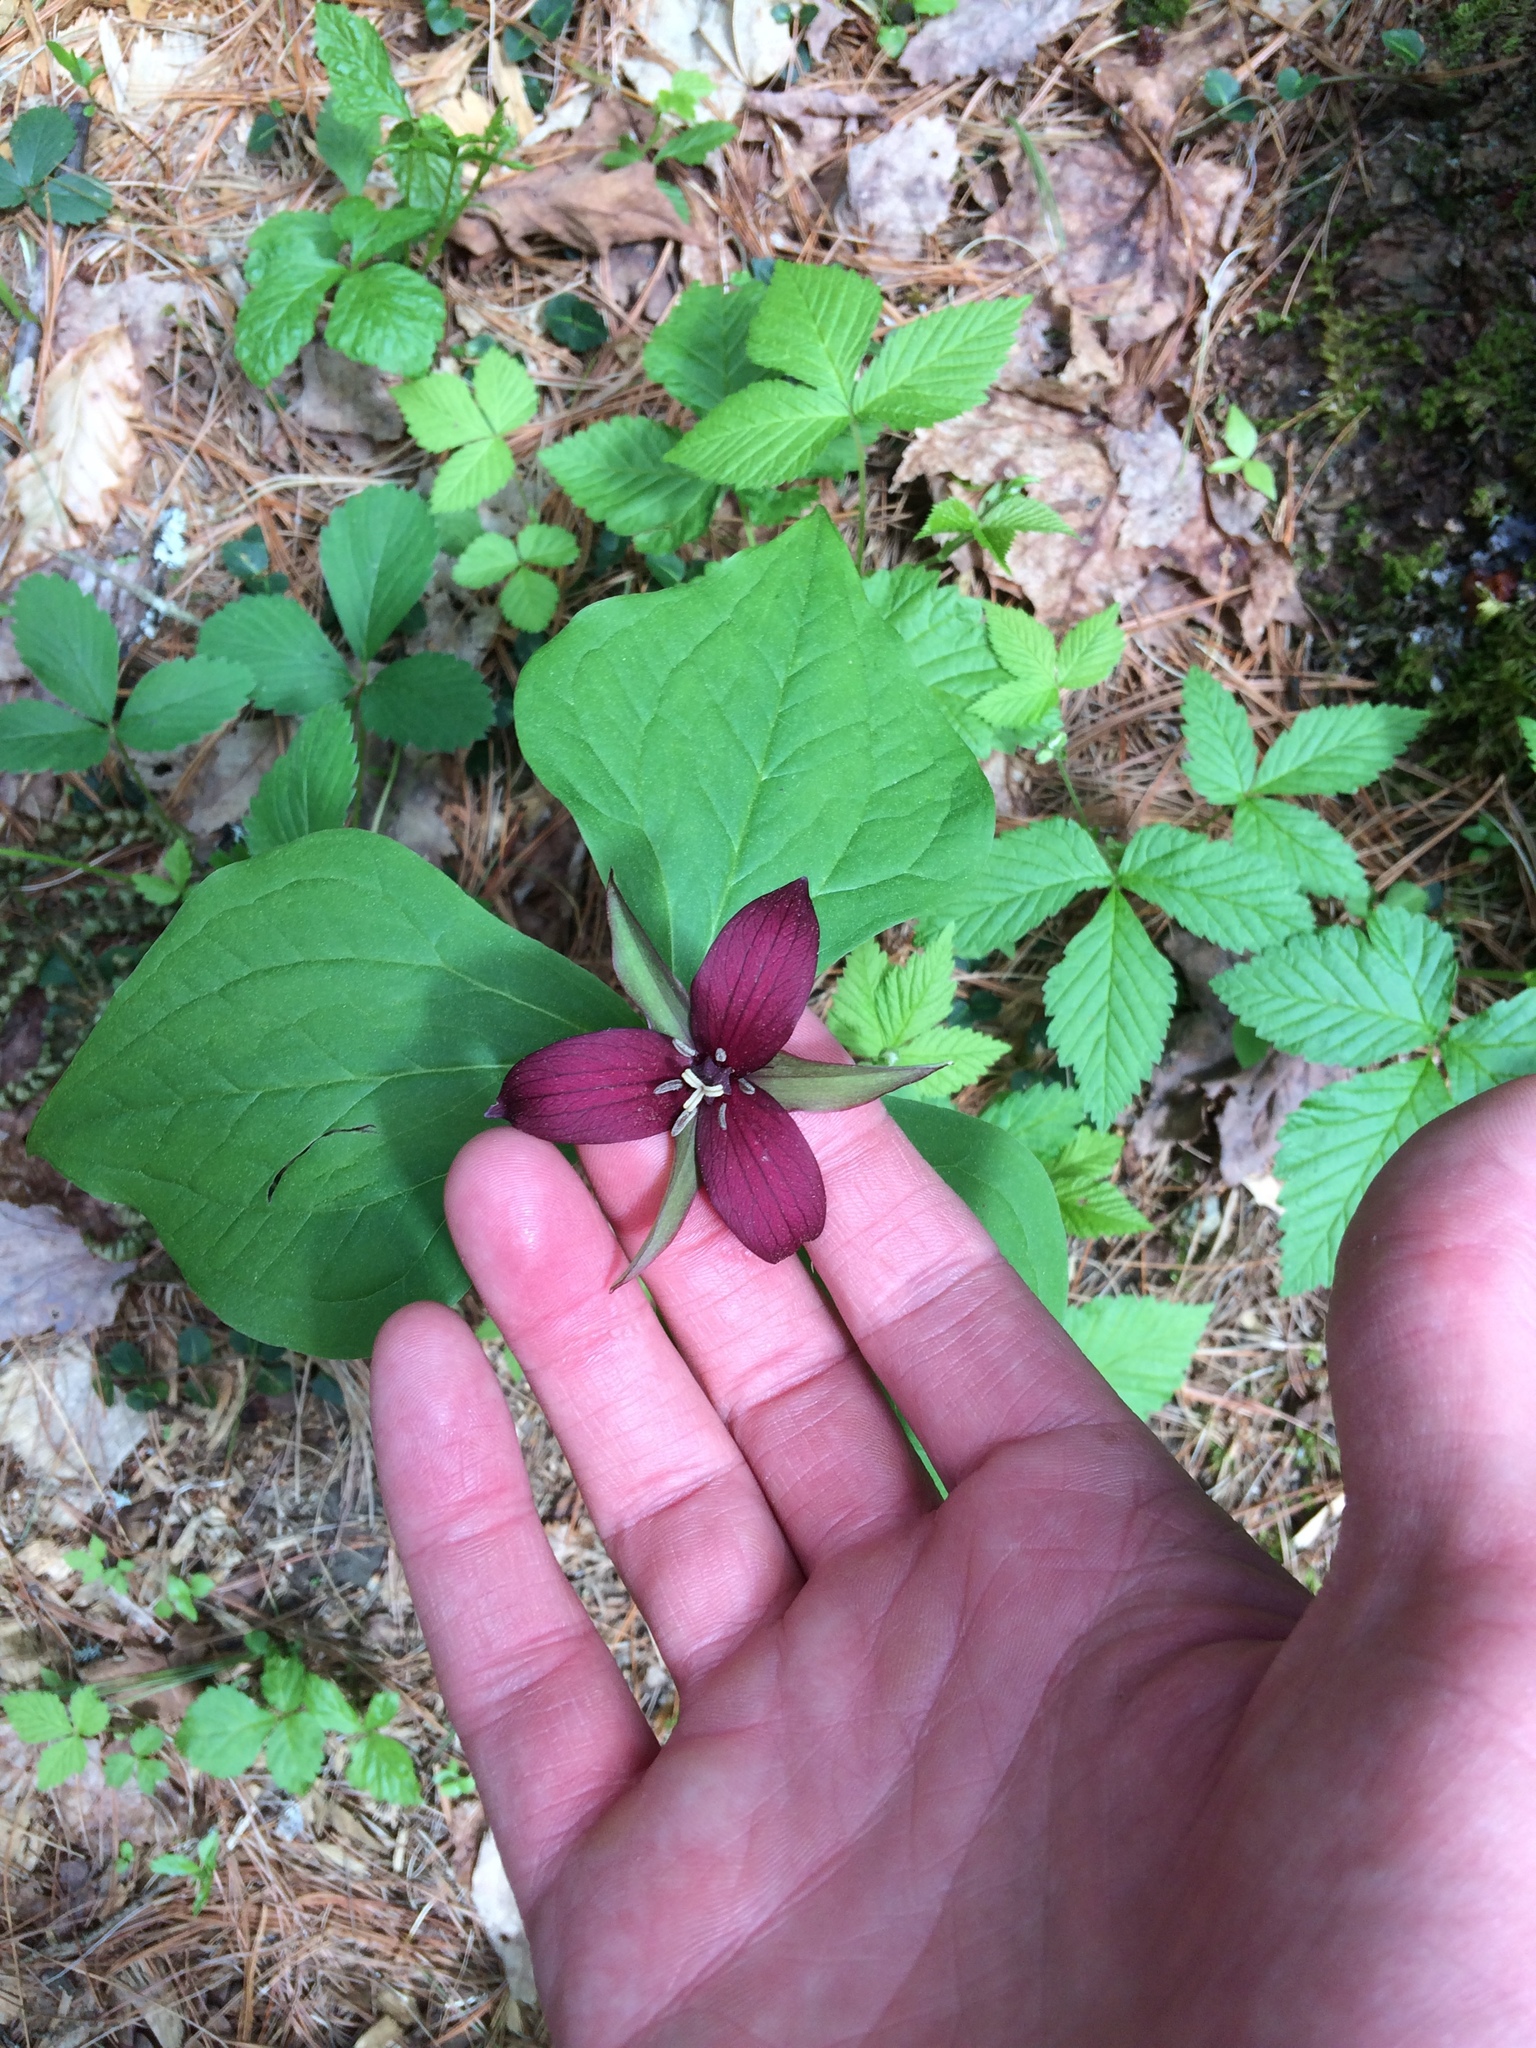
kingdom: Plantae
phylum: Tracheophyta
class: Liliopsida
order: Liliales
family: Melanthiaceae
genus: Trillium
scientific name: Trillium erectum
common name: Purple trillium
